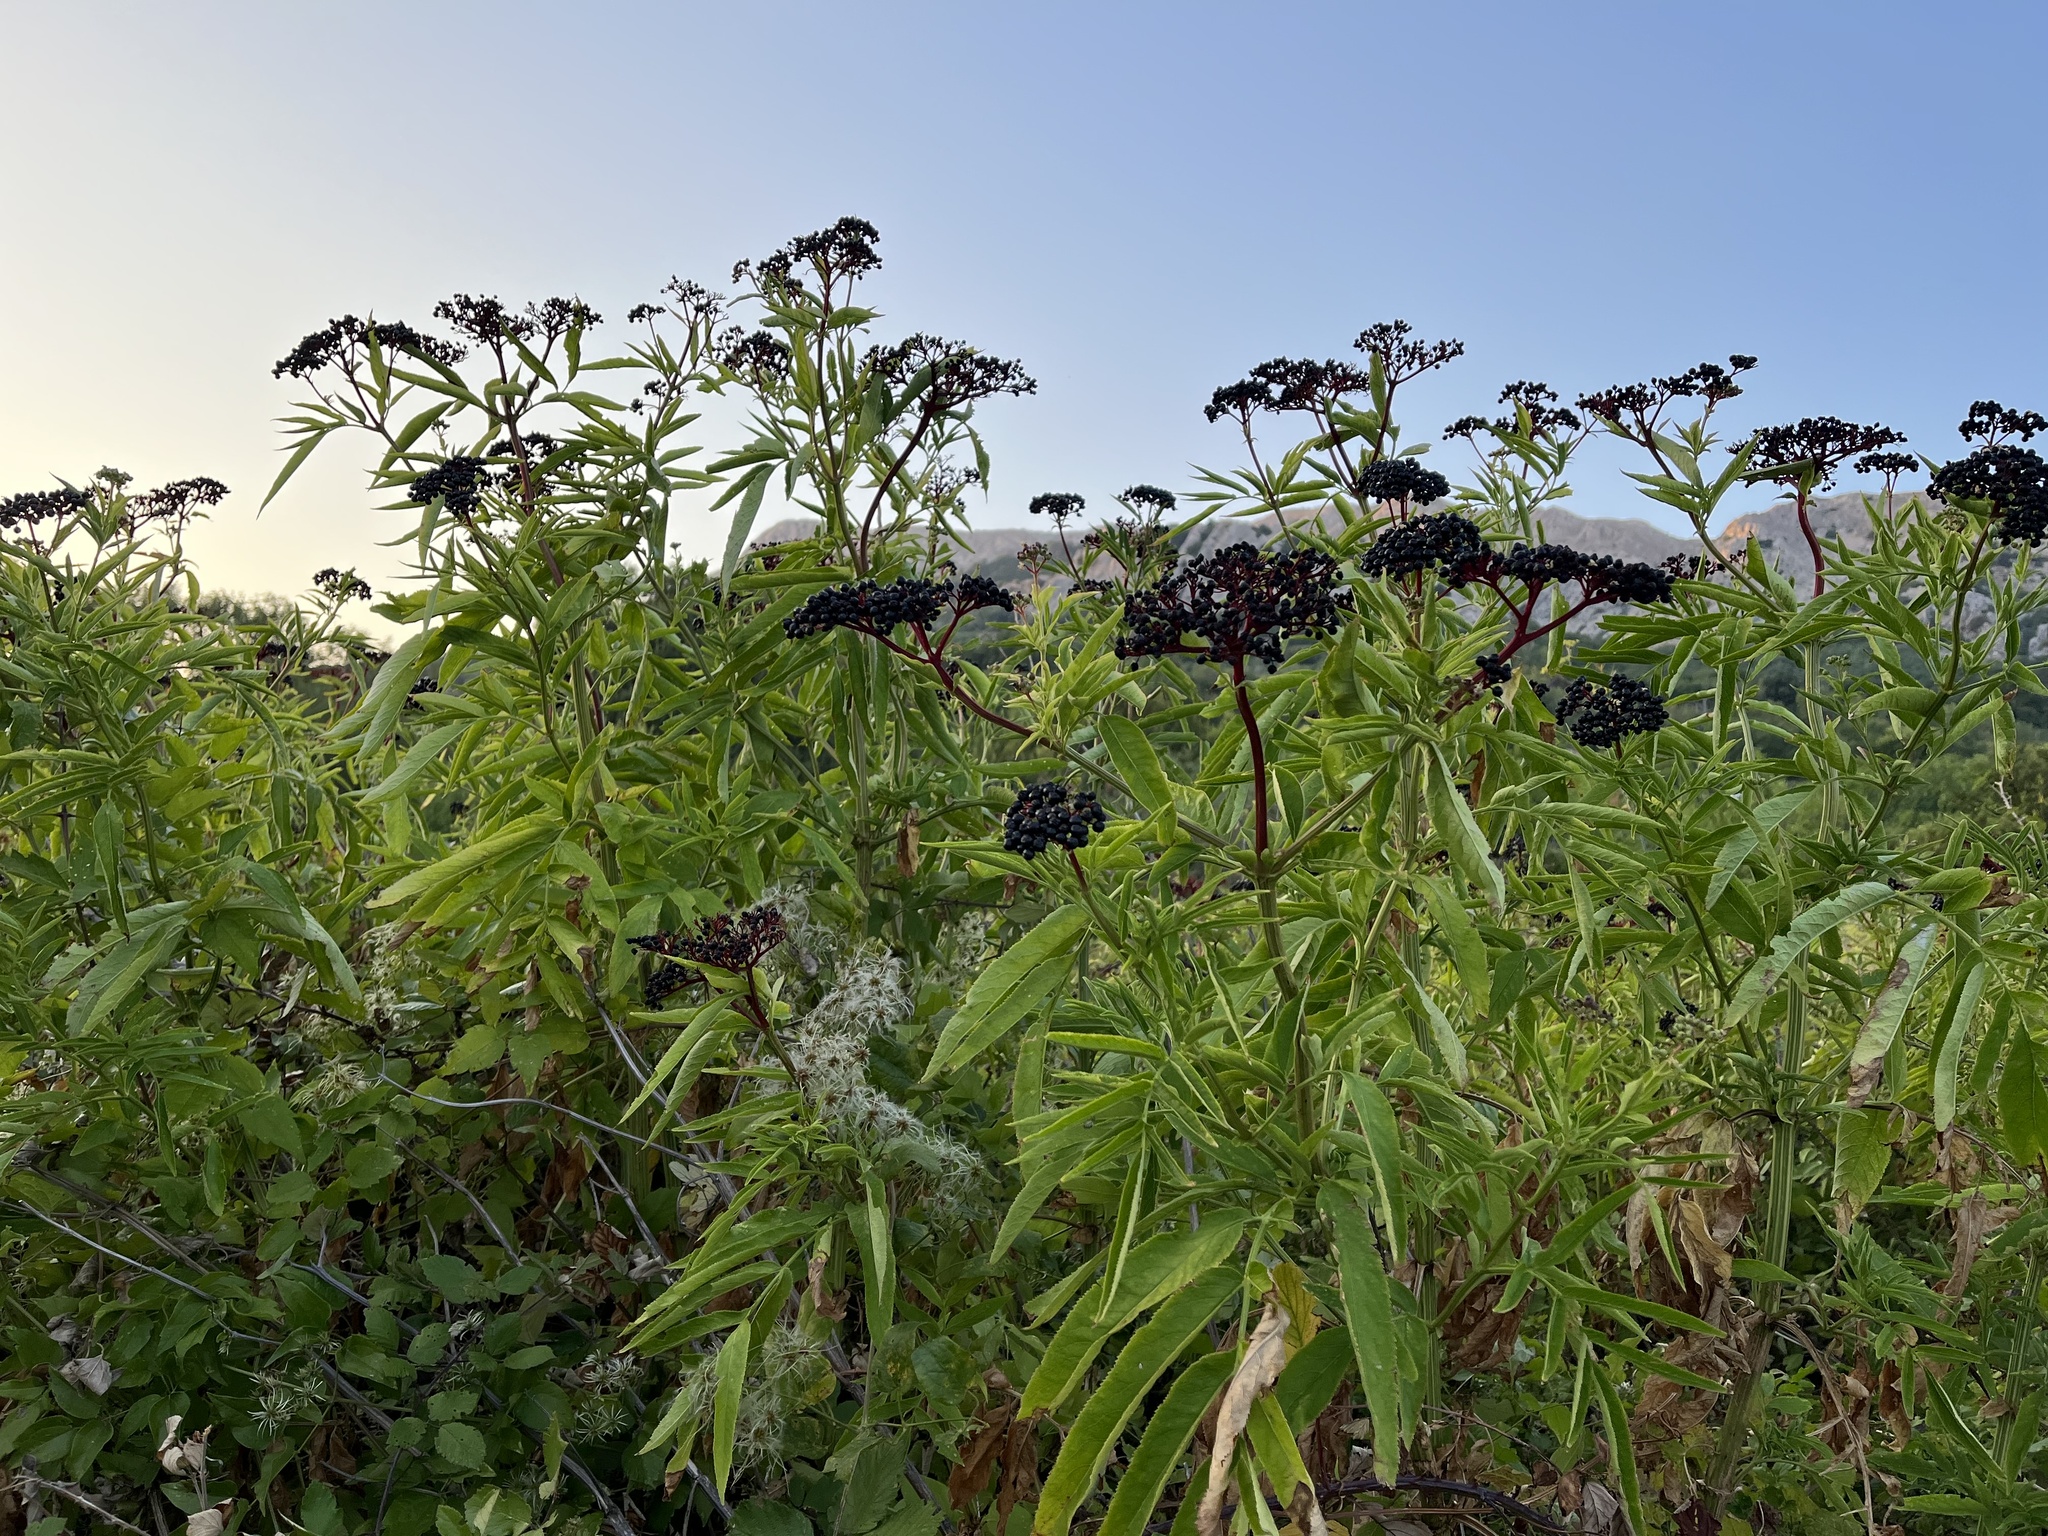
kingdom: Plantae
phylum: Tracheophyta
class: Magnoliopsida
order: Dipsacales
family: Viburnaceae
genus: Sambucus
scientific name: Sambucus ebulus
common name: Dwarf elder
